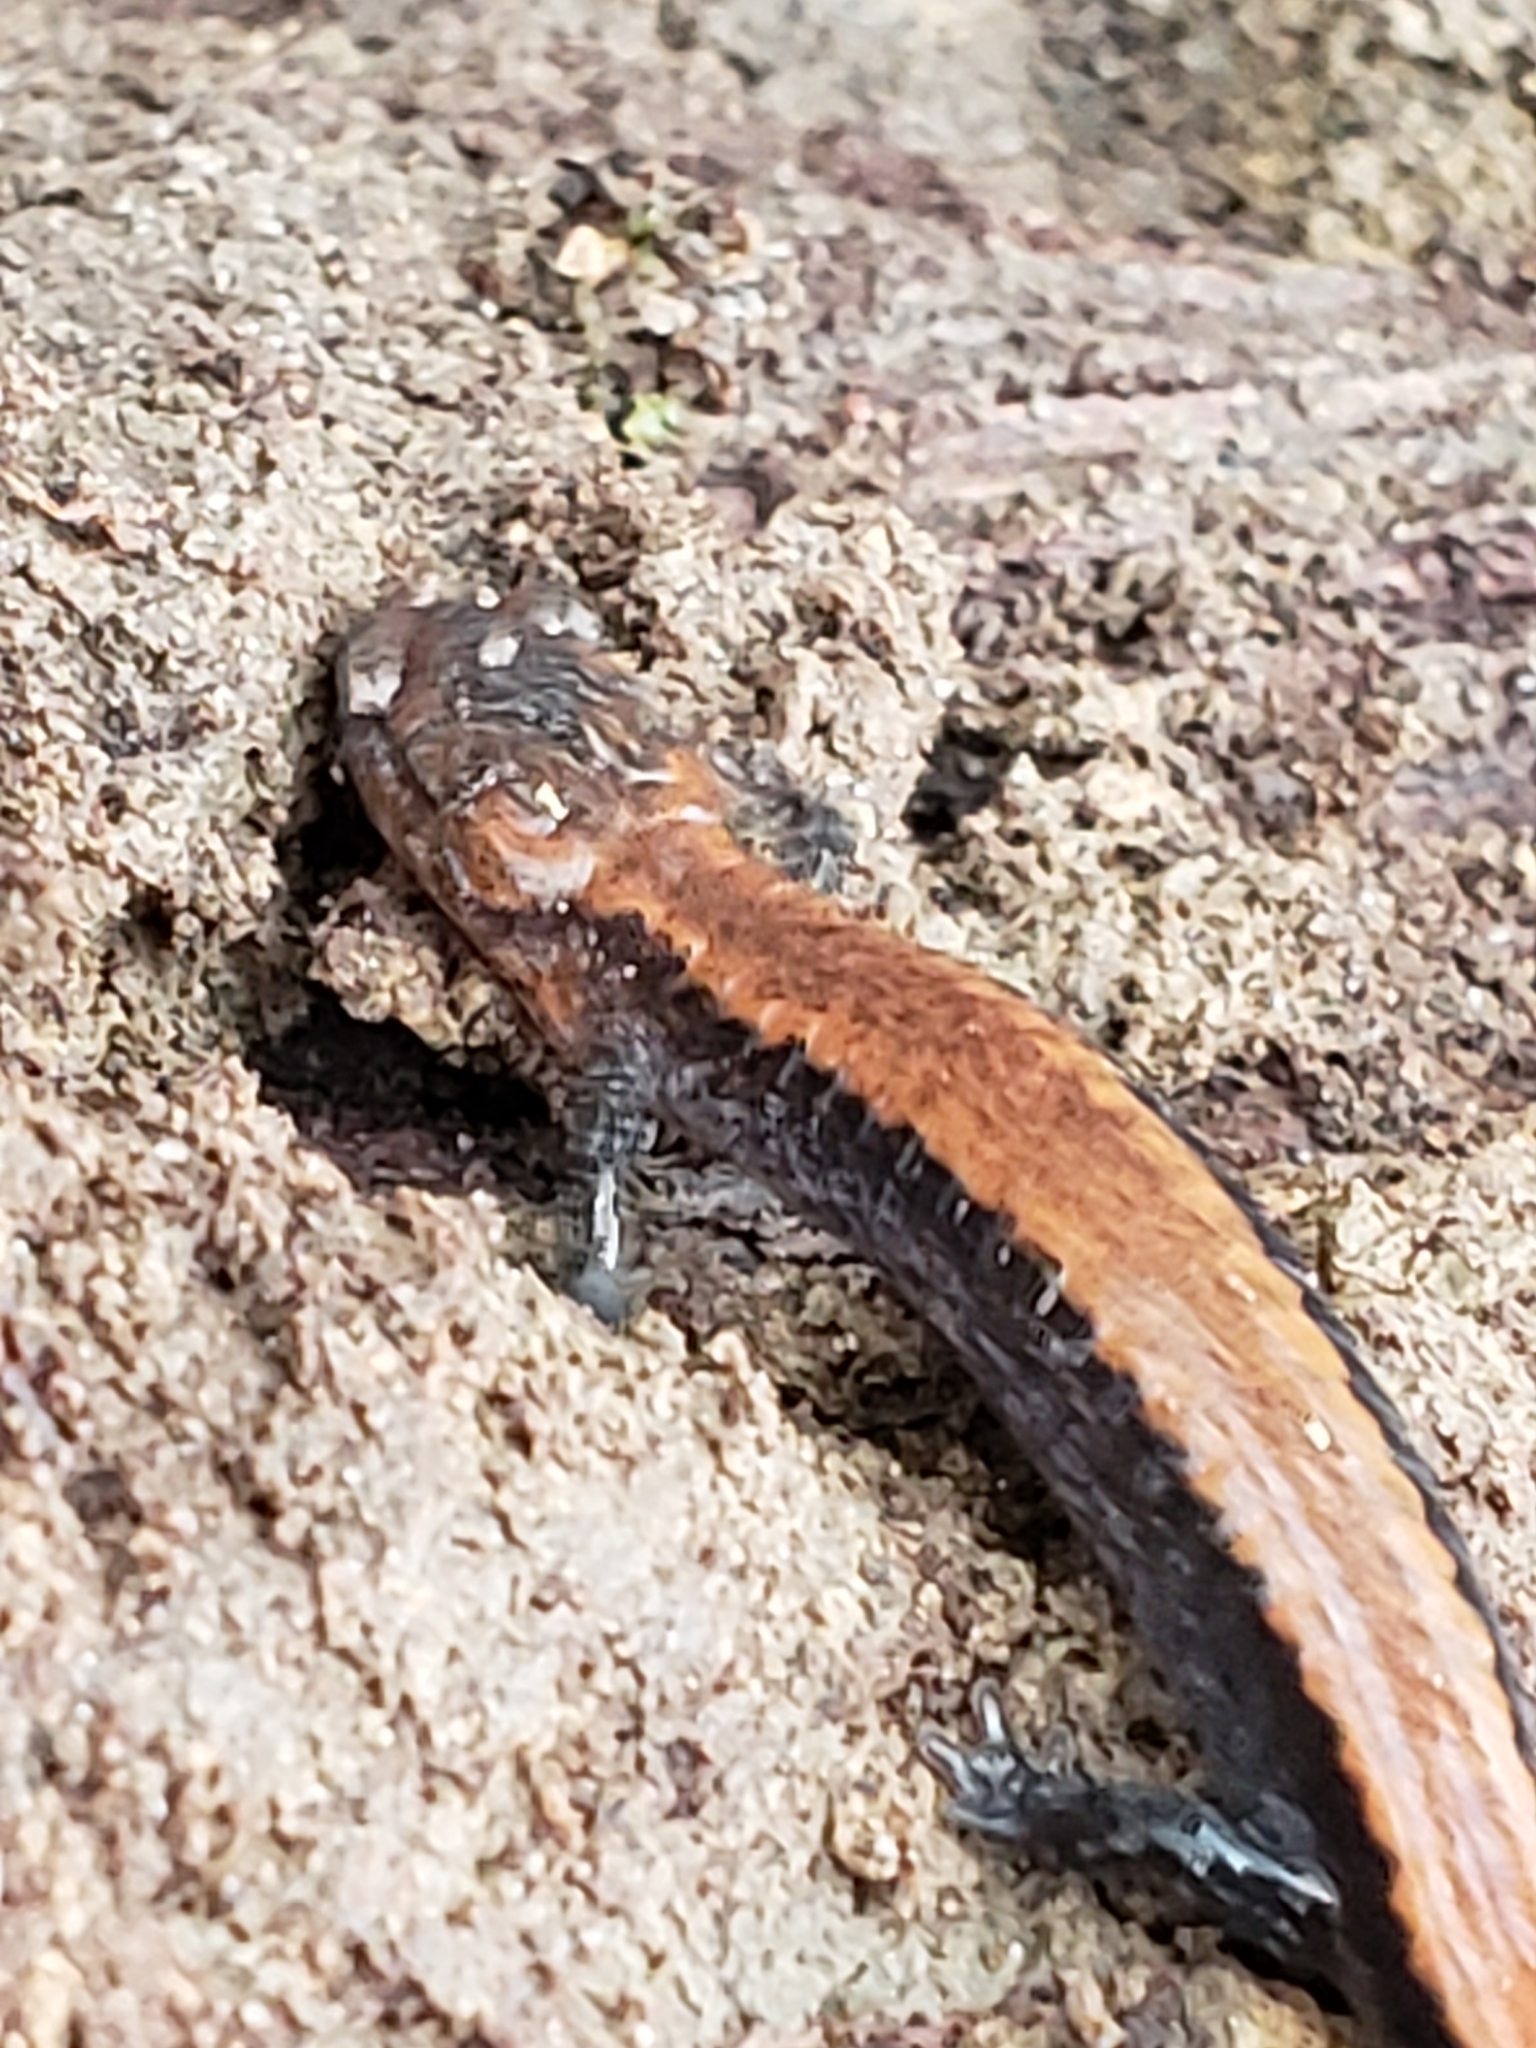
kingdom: Animalia
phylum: Chordata
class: Amphibia
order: Caudata
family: Plethodontidae
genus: Plethodon
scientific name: Plethodon cinereus
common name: Redback salamander
